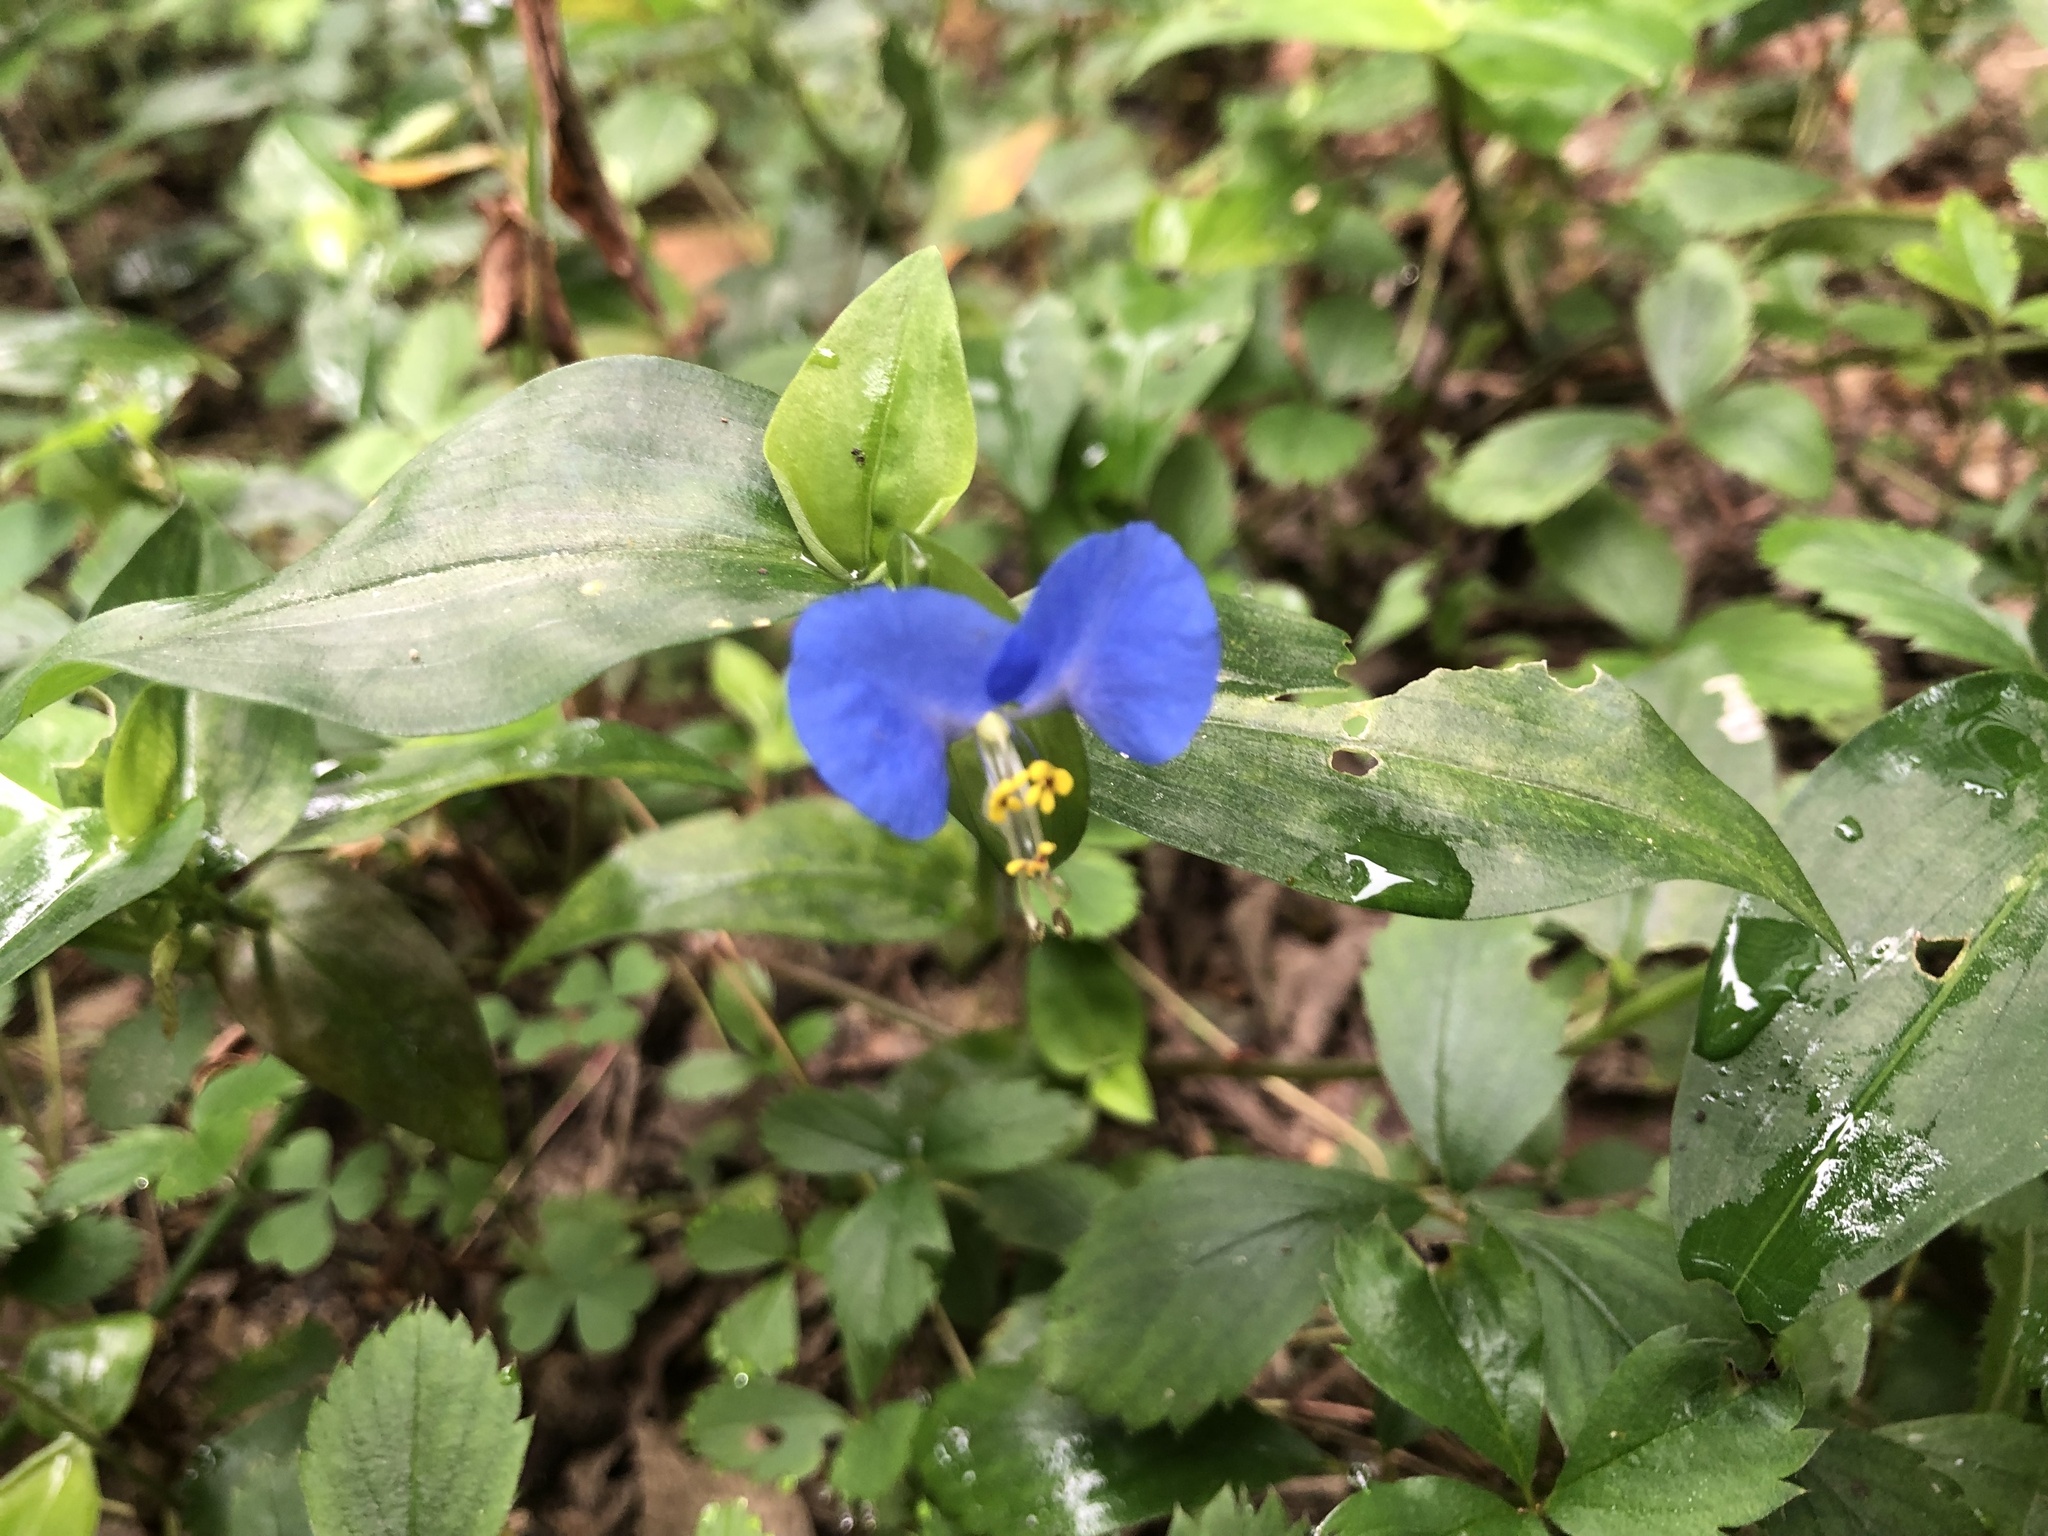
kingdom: Plantae
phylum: Tracheophyta
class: Liliopsida
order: Commelinales
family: Commelinaceae
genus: Commelina
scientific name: Commelina communis
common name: Asiatic dayflower
